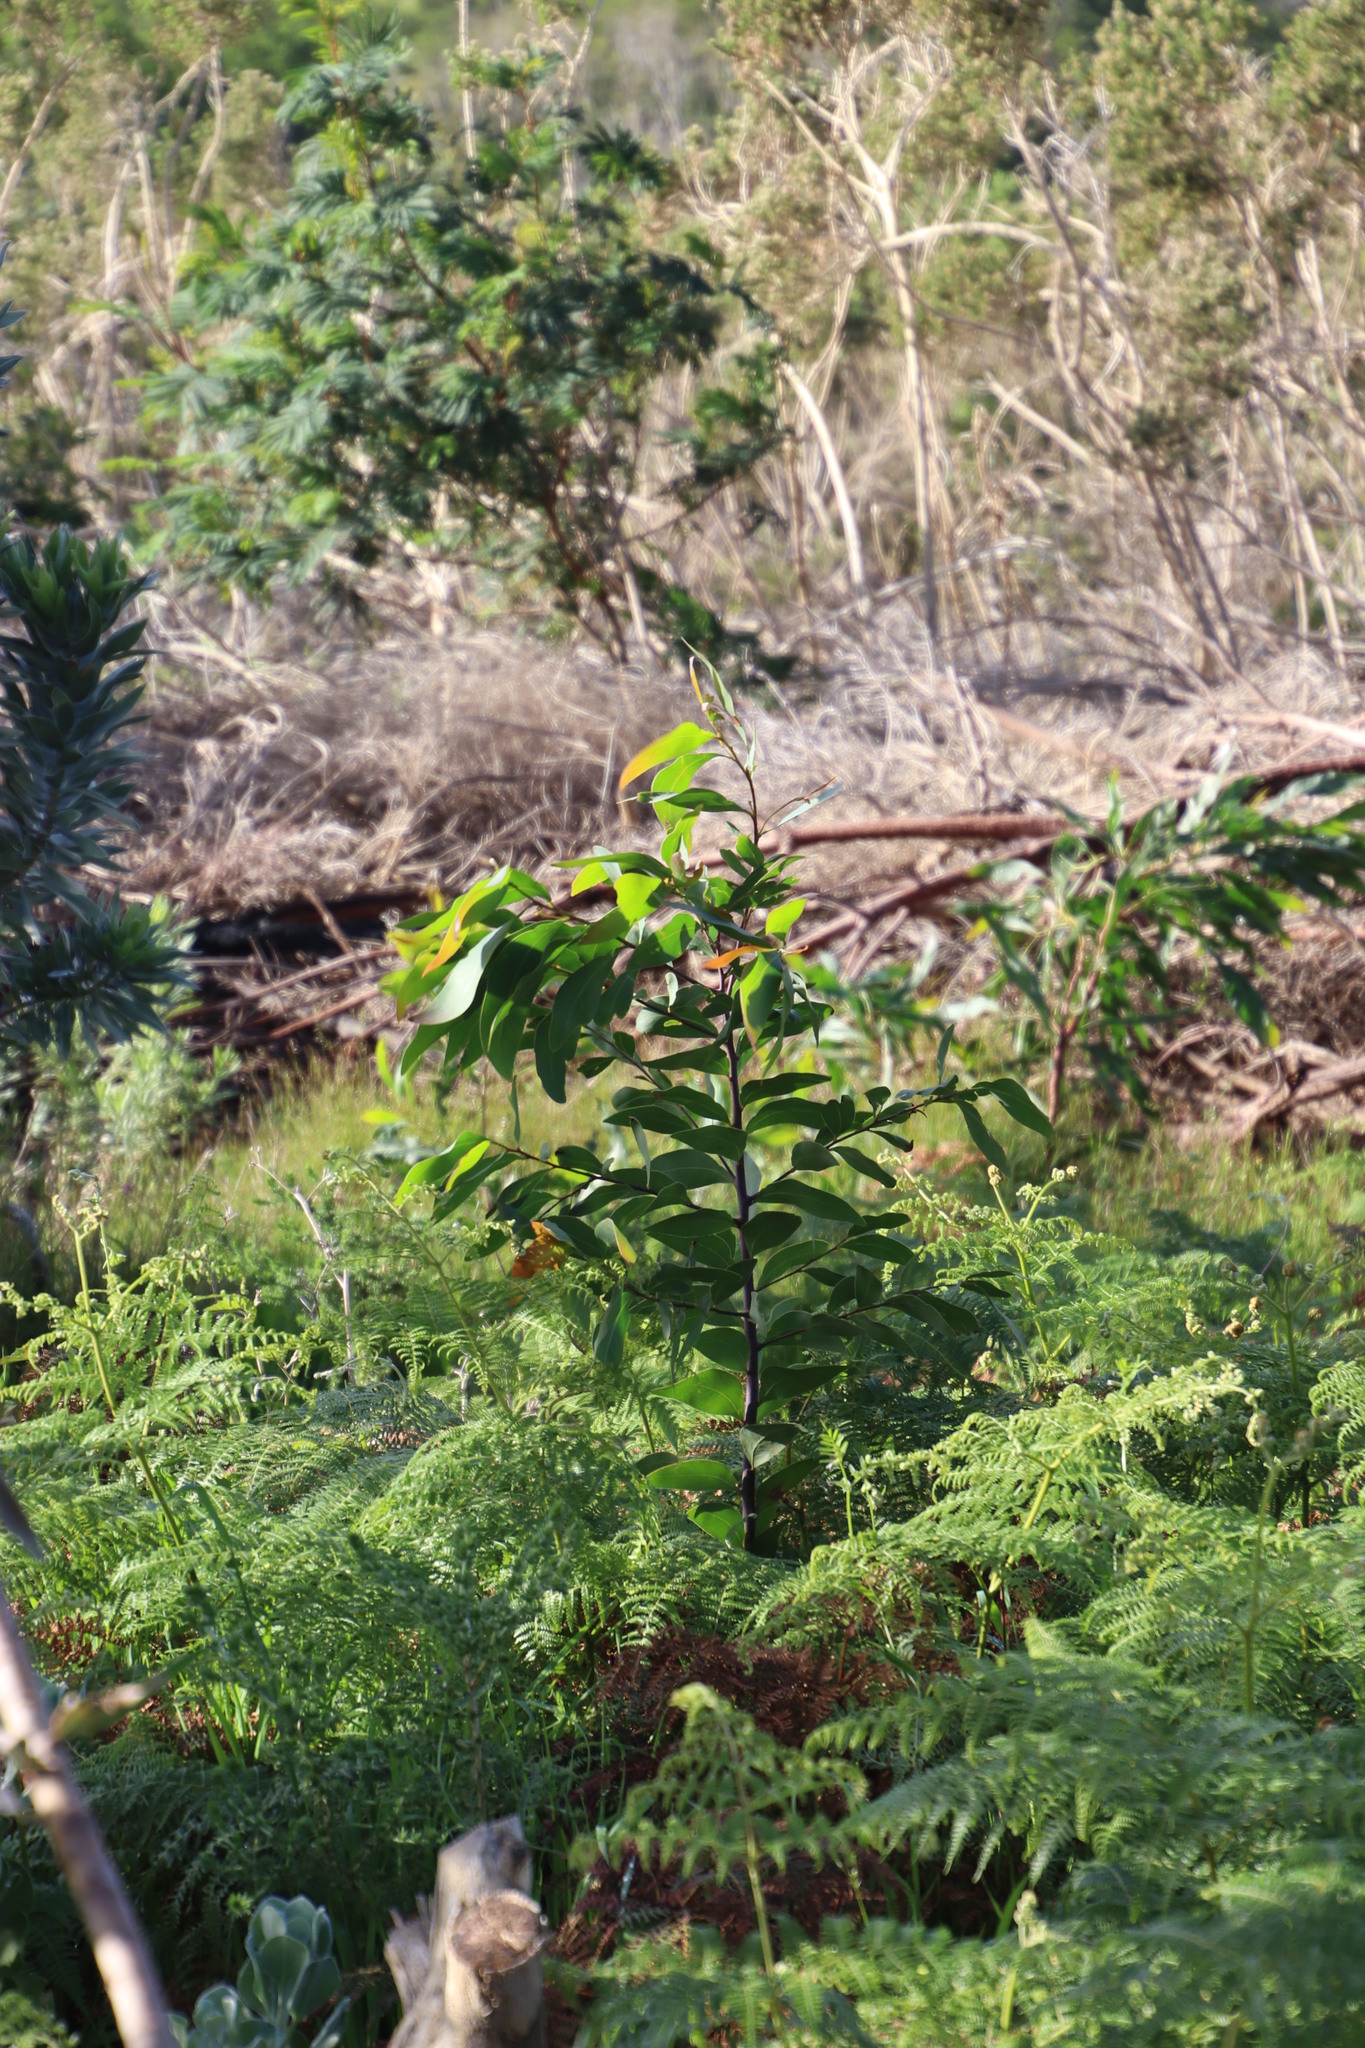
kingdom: Plantae
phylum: Tracheophyta
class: Magnoliopsida
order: Fabales
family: Fabaceae
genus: Acacia
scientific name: Acacia pycnantha
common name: Golden wattle
